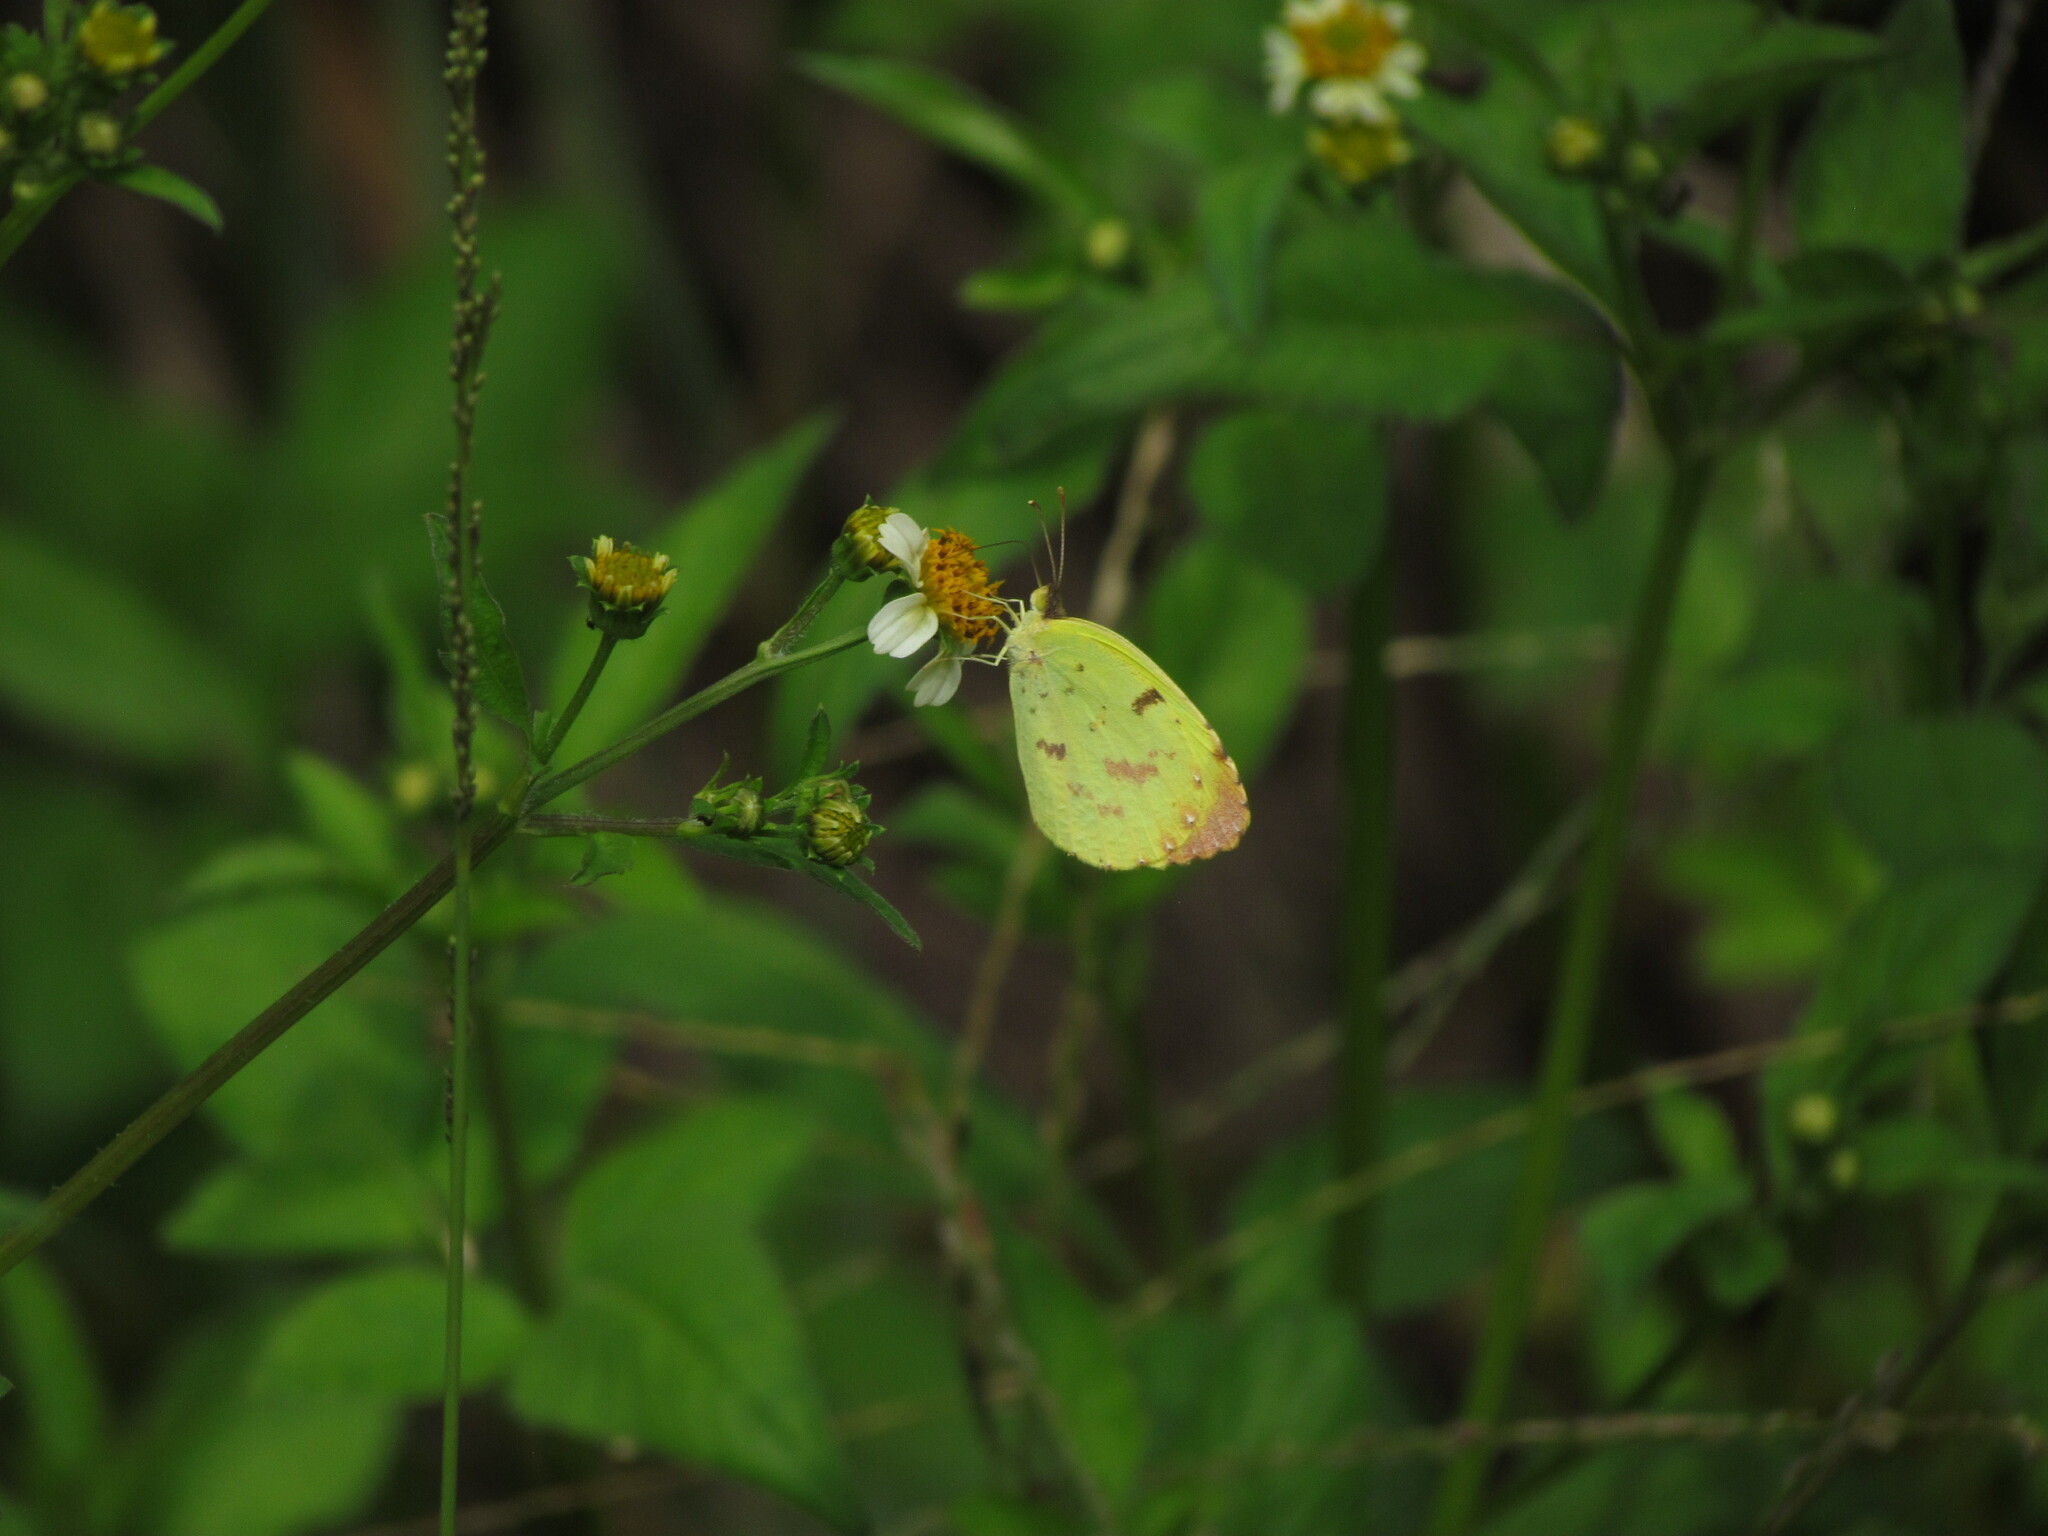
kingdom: Animalia
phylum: Arthropoda
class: Insecta
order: Lepidoptera
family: Pieridae
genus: Teriocolias
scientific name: Teriocolias
